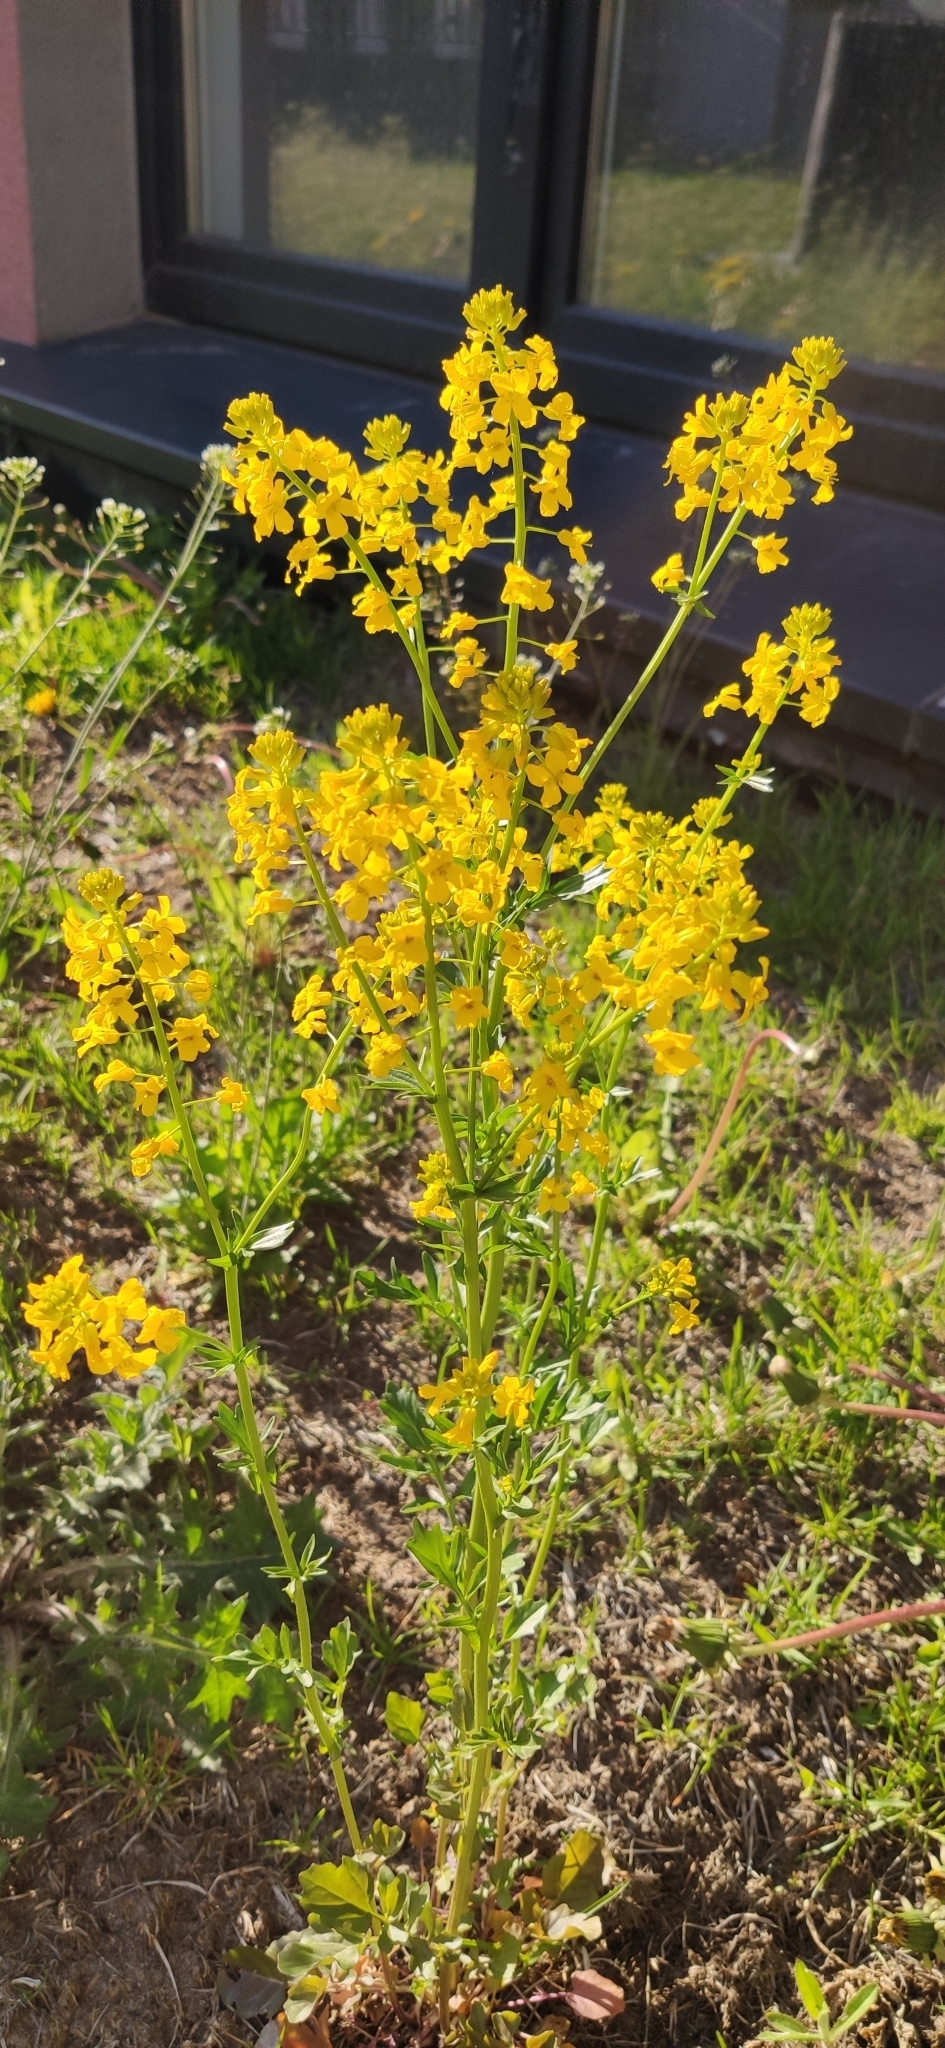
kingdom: Plantae
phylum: Tracheophyta
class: Magnoliopsida
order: Brassicales
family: Brassicaceae
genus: Barbarea
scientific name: Barbarea vulgaris
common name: Cressy-greens
